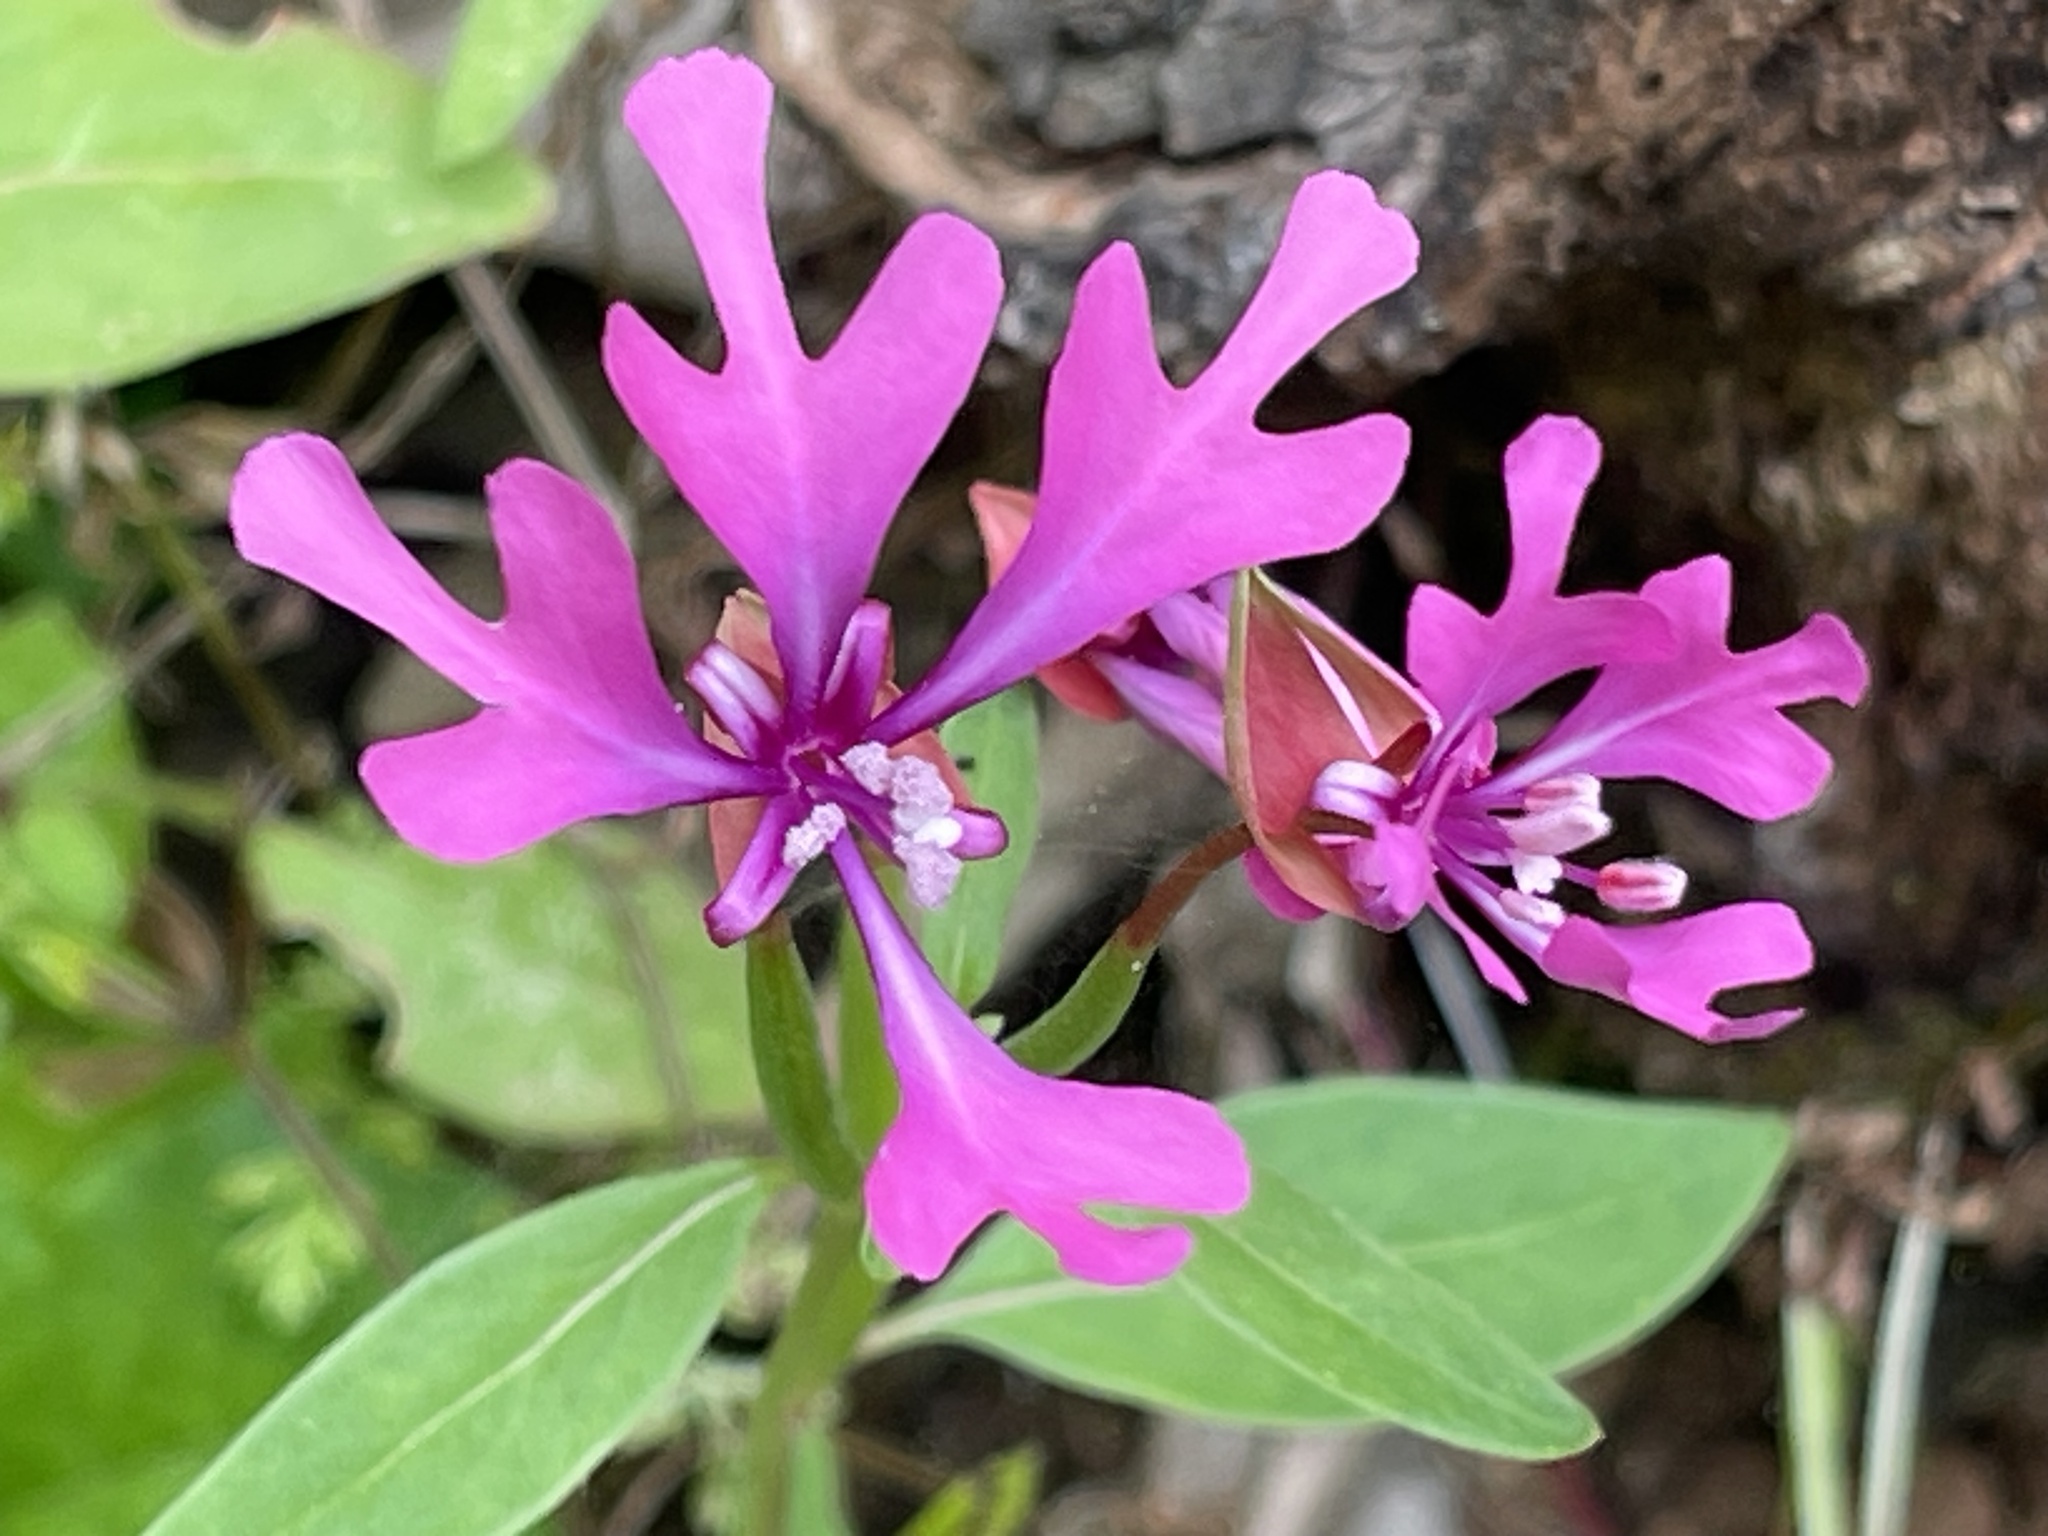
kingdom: Plantae
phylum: Tracheophyta
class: Magnoliopsida
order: Myrtales
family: Onagraceae
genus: Clarkia
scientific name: Clarkia concinna
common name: Red-ribbons
